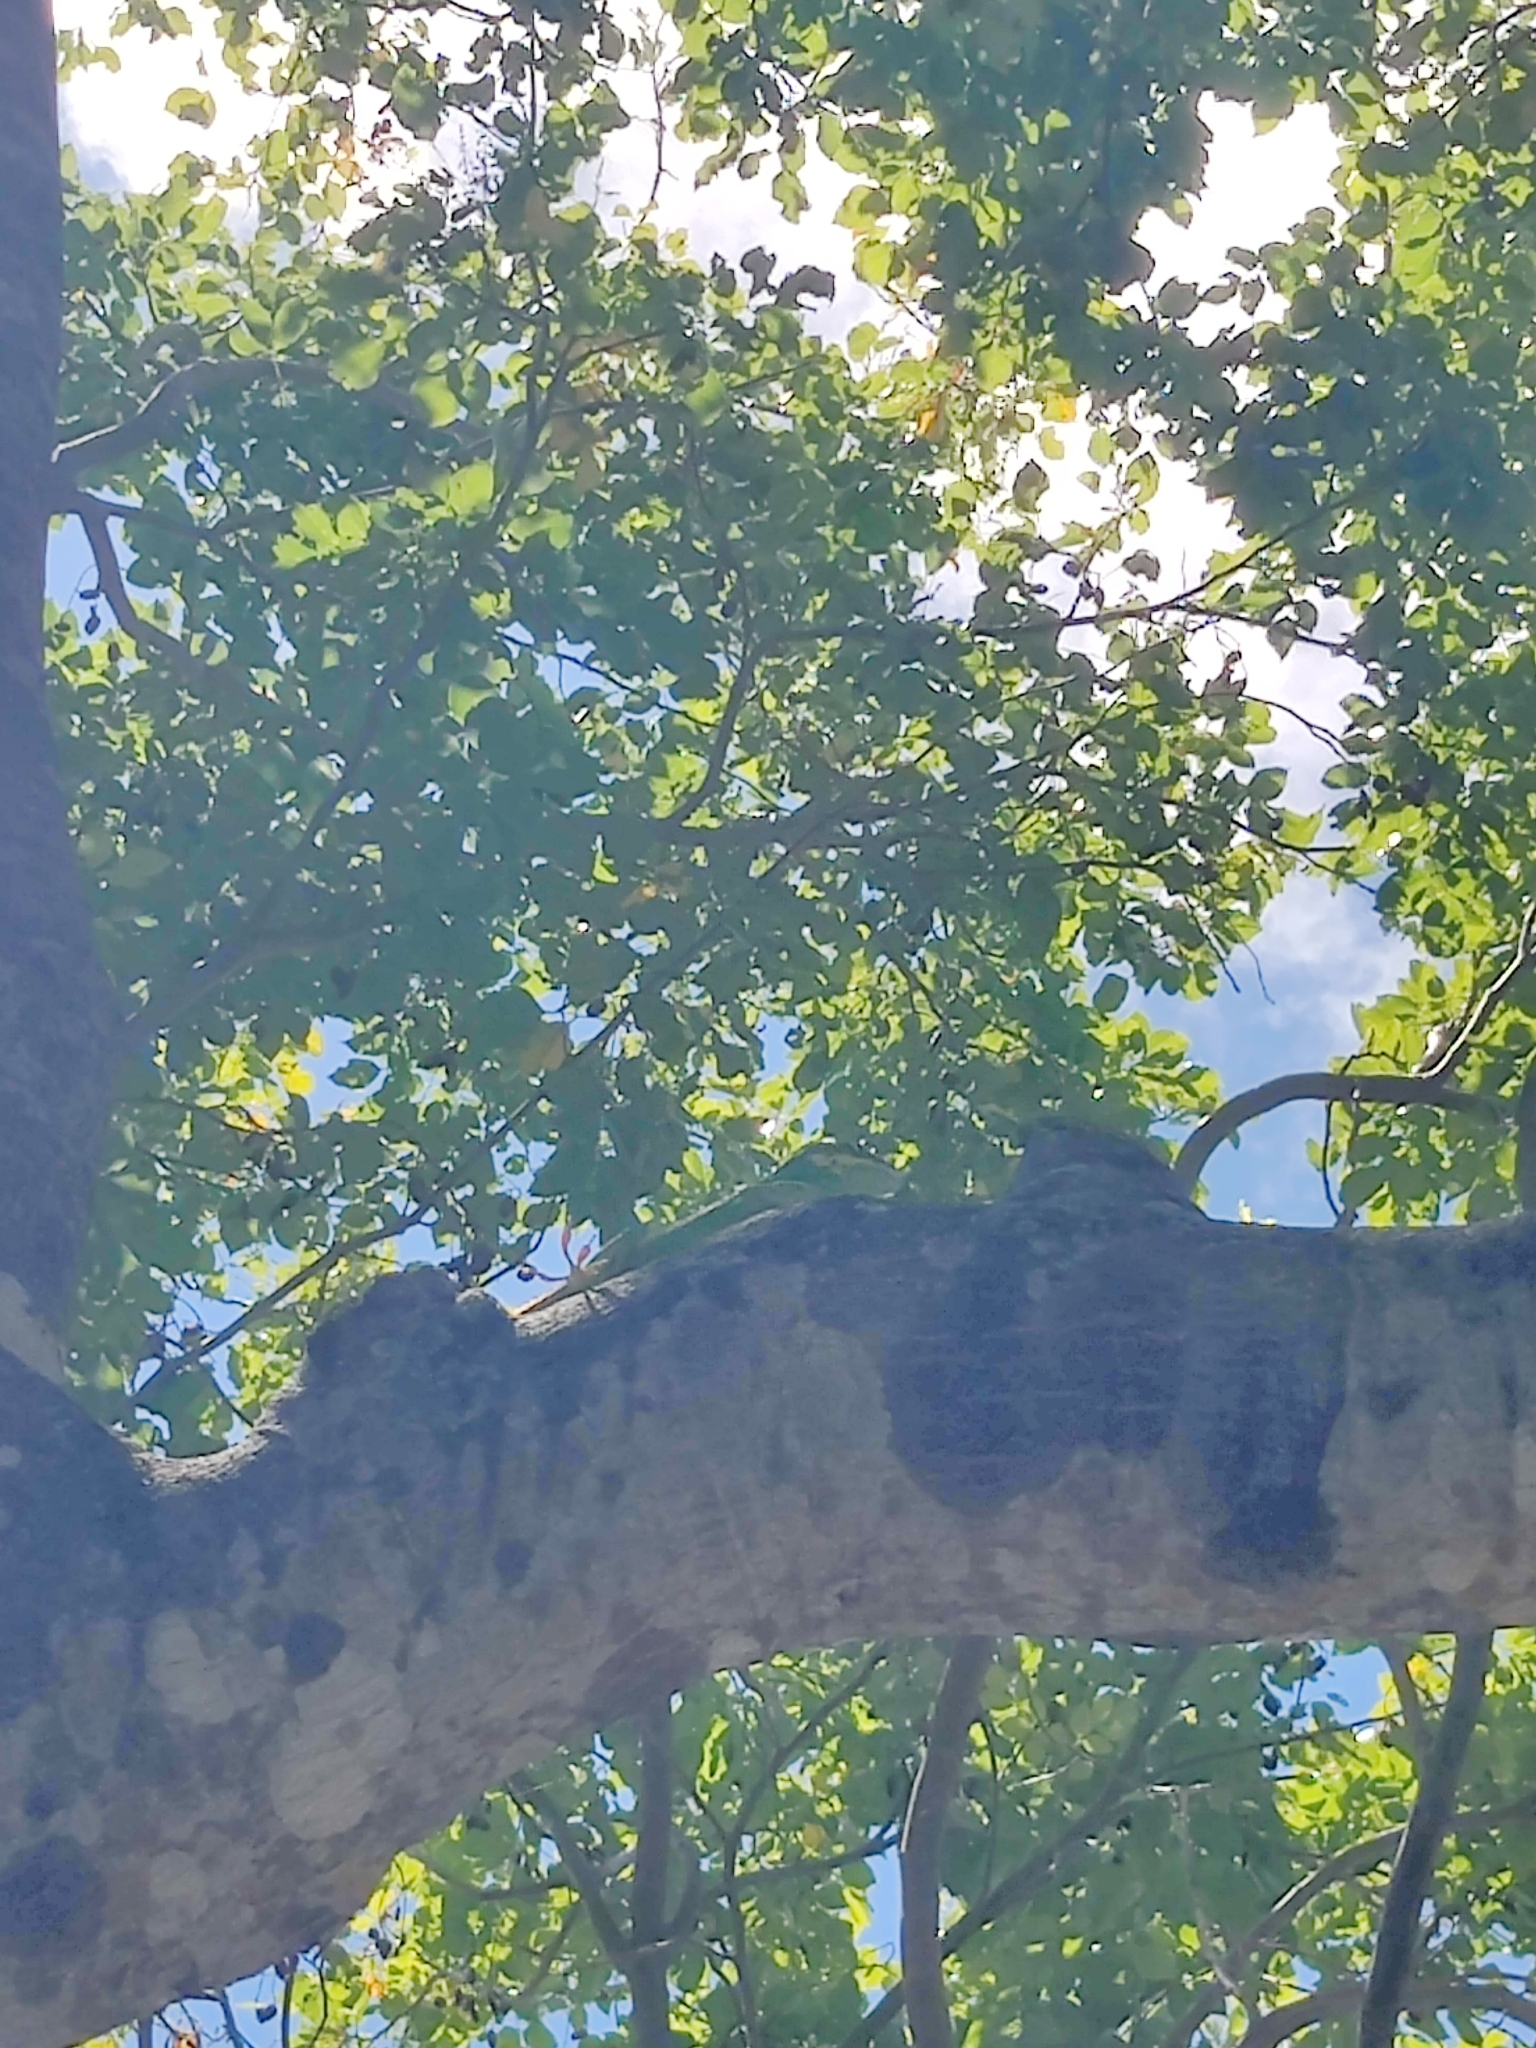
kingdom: Animalia
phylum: Chordata
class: Squamata
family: Dactyloidae
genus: Anolis
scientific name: Anolis equestris
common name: Knight anole
